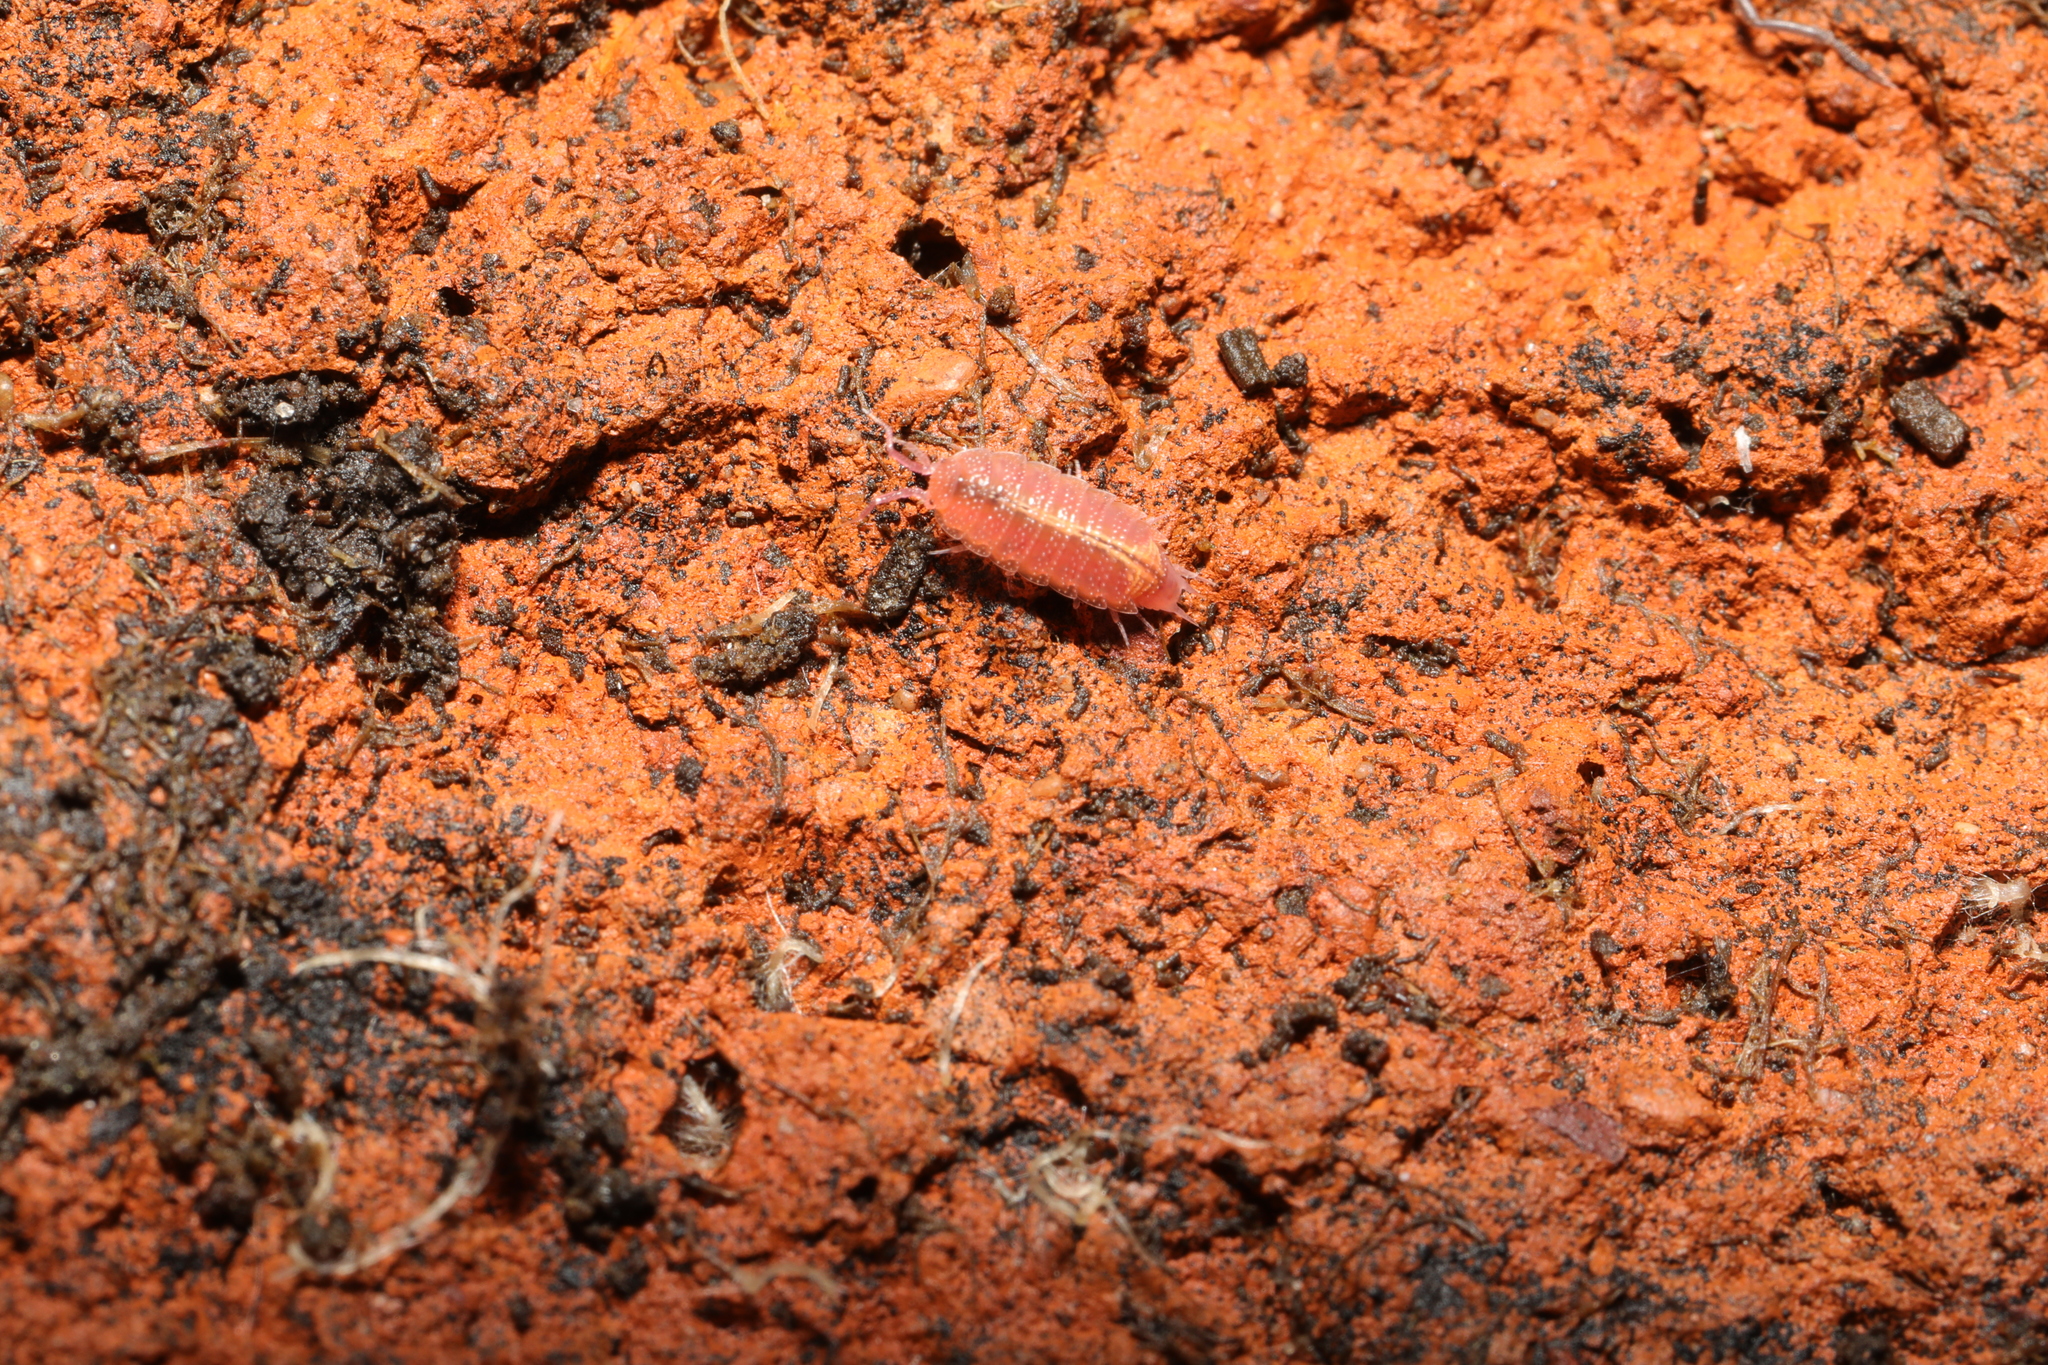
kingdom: Animalia
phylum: Arthropoda
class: Malacostraca
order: Isopoda
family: Trichoniscidae
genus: Androniscus
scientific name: Androniscus dentiger
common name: Rosy woodlouse
